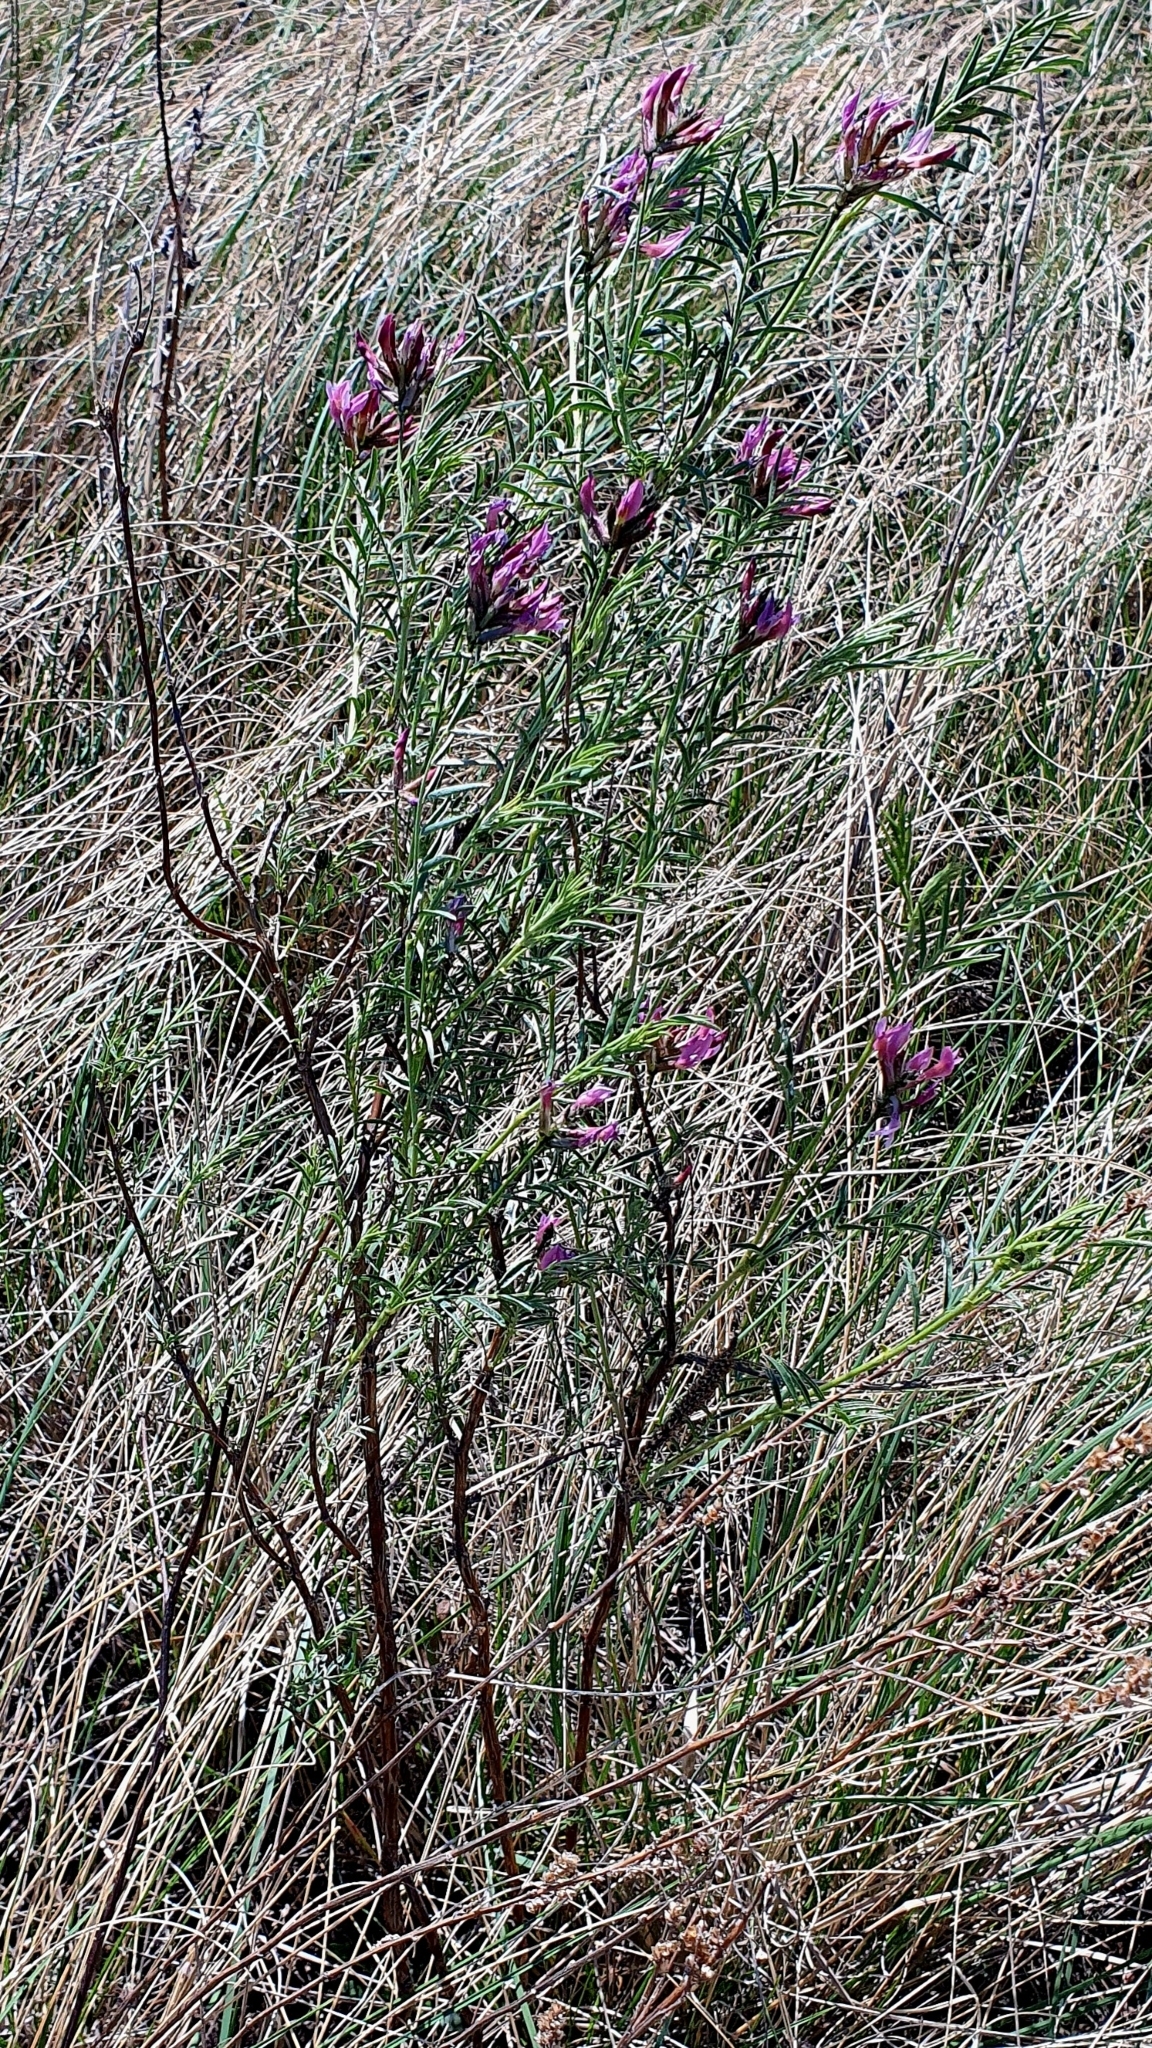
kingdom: Plantae
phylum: Tracheophyta
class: Magnoliopsida
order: Fabales
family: Fabaceae
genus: Astragalus
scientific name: Astragalus cornutus
